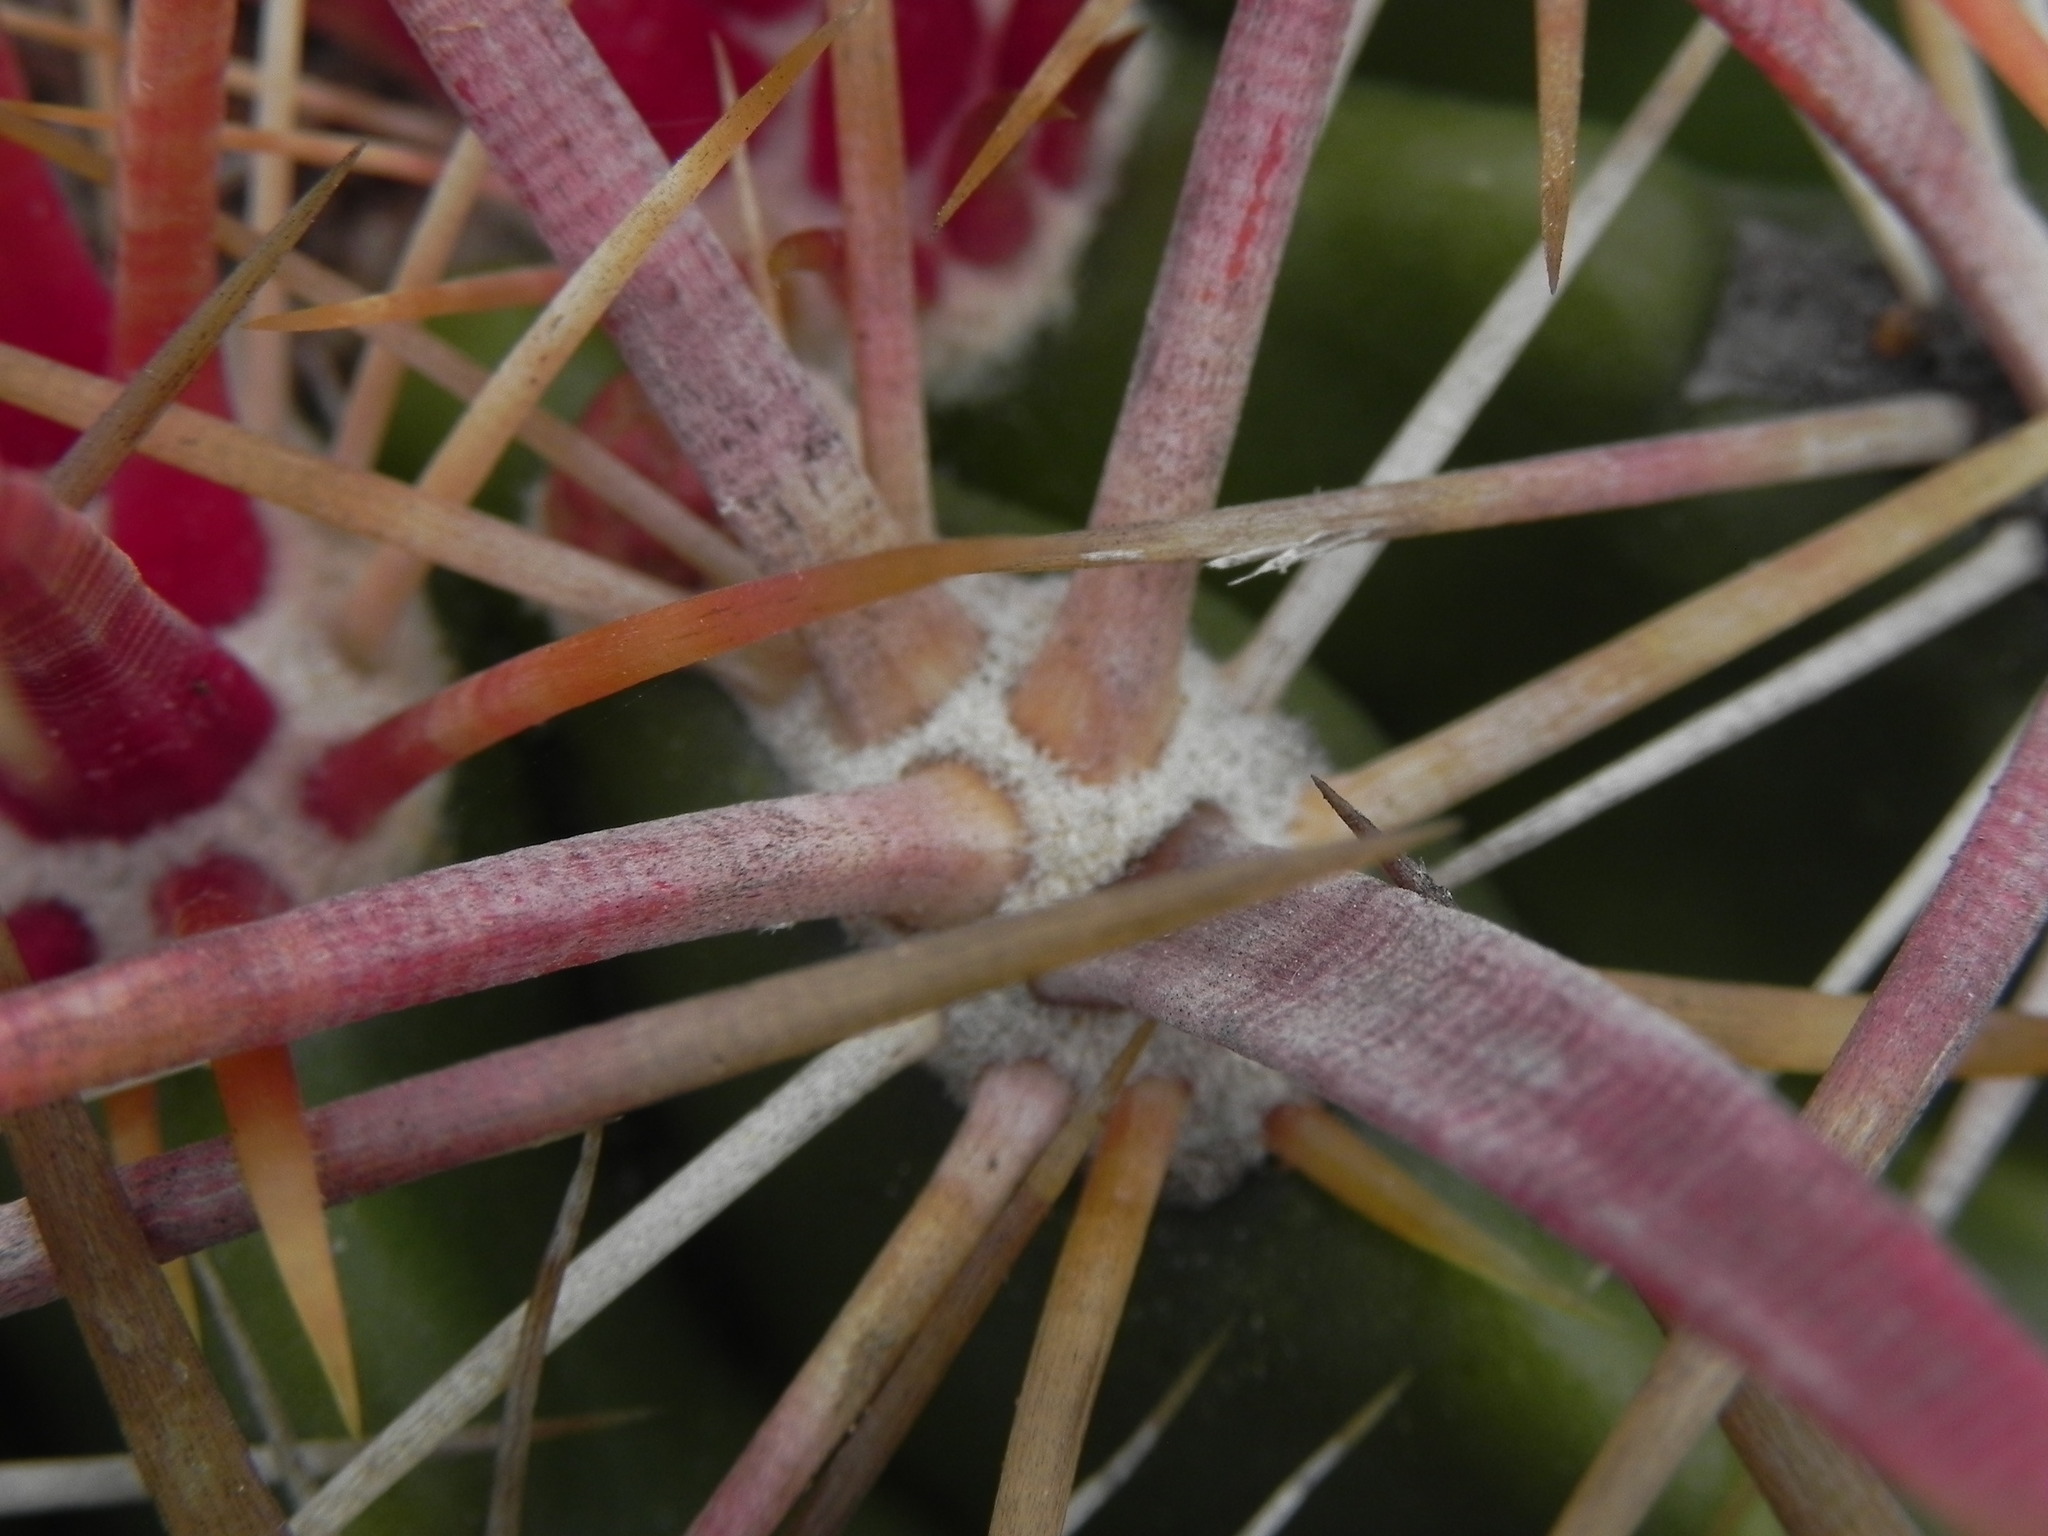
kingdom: Plantae
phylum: Tracheophyta
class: Magnoliopsida
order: Caryophyllales
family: Cactaceae
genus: Ferocactus
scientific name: Ferocactus viridescens
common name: San diego barrel cactus
